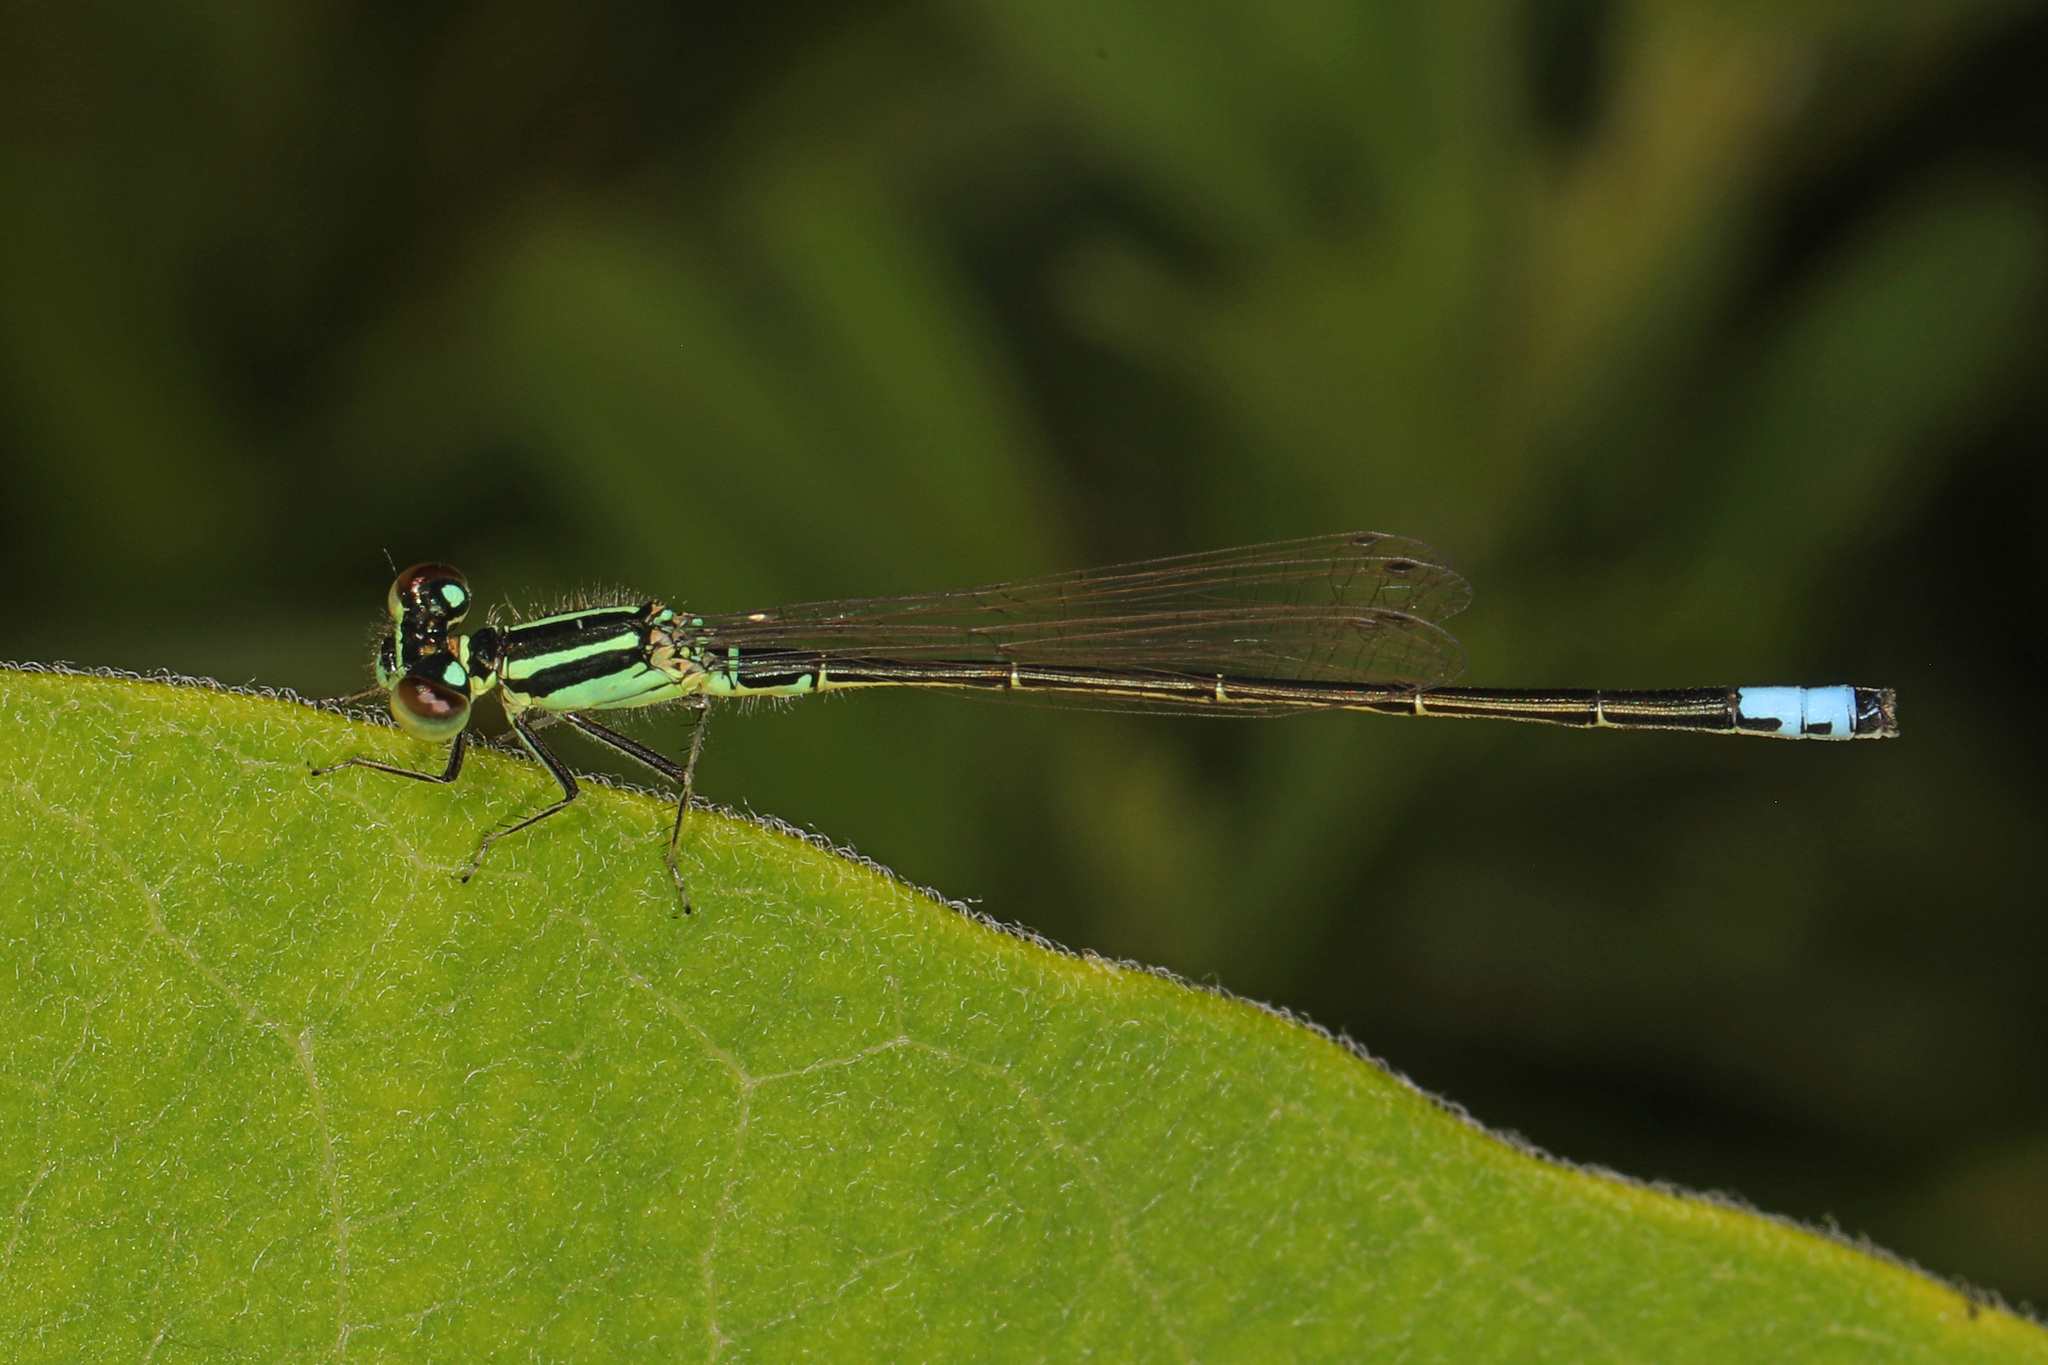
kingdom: Animalia
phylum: Arthropoda
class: Insecta
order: Odonata
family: Coenagrionidae
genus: Ischnura
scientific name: Ischnura verticalis
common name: Eastern forktail
